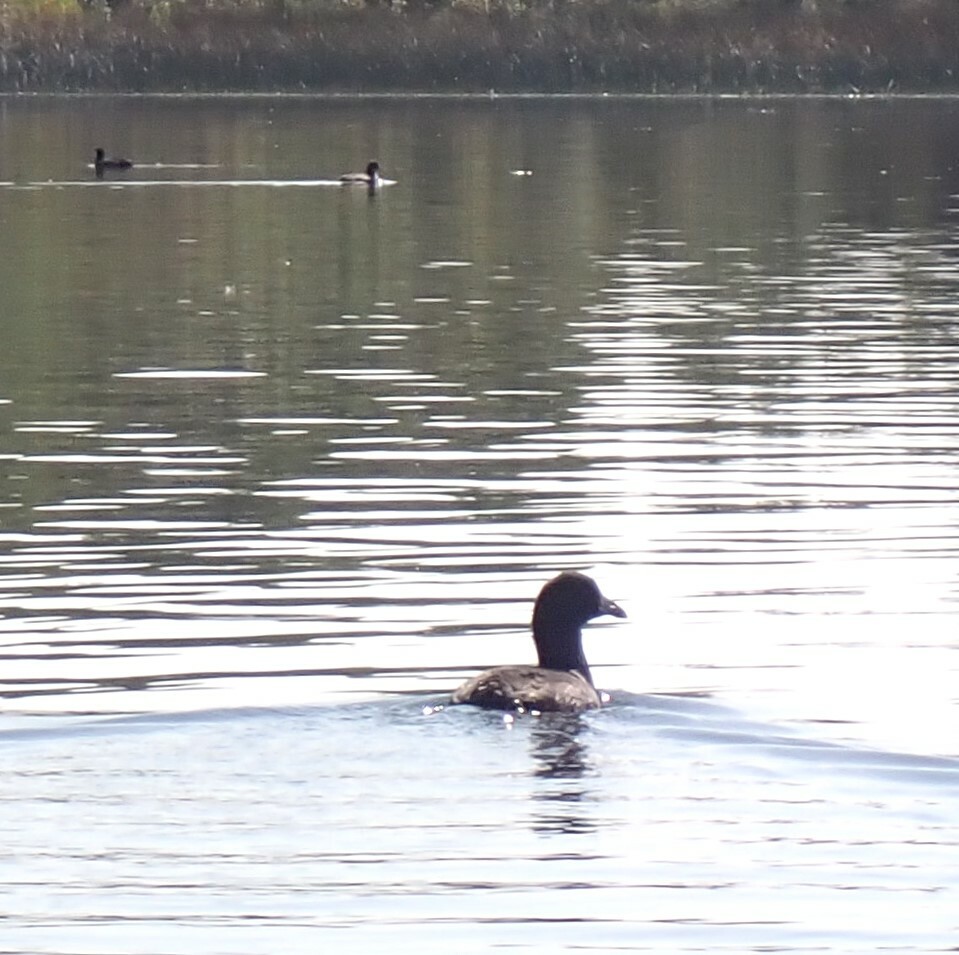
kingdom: Animalia
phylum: Chordata
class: Aves
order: Gruiformes
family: Rallidae
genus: Fulica
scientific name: Fulica americana
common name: American coot
